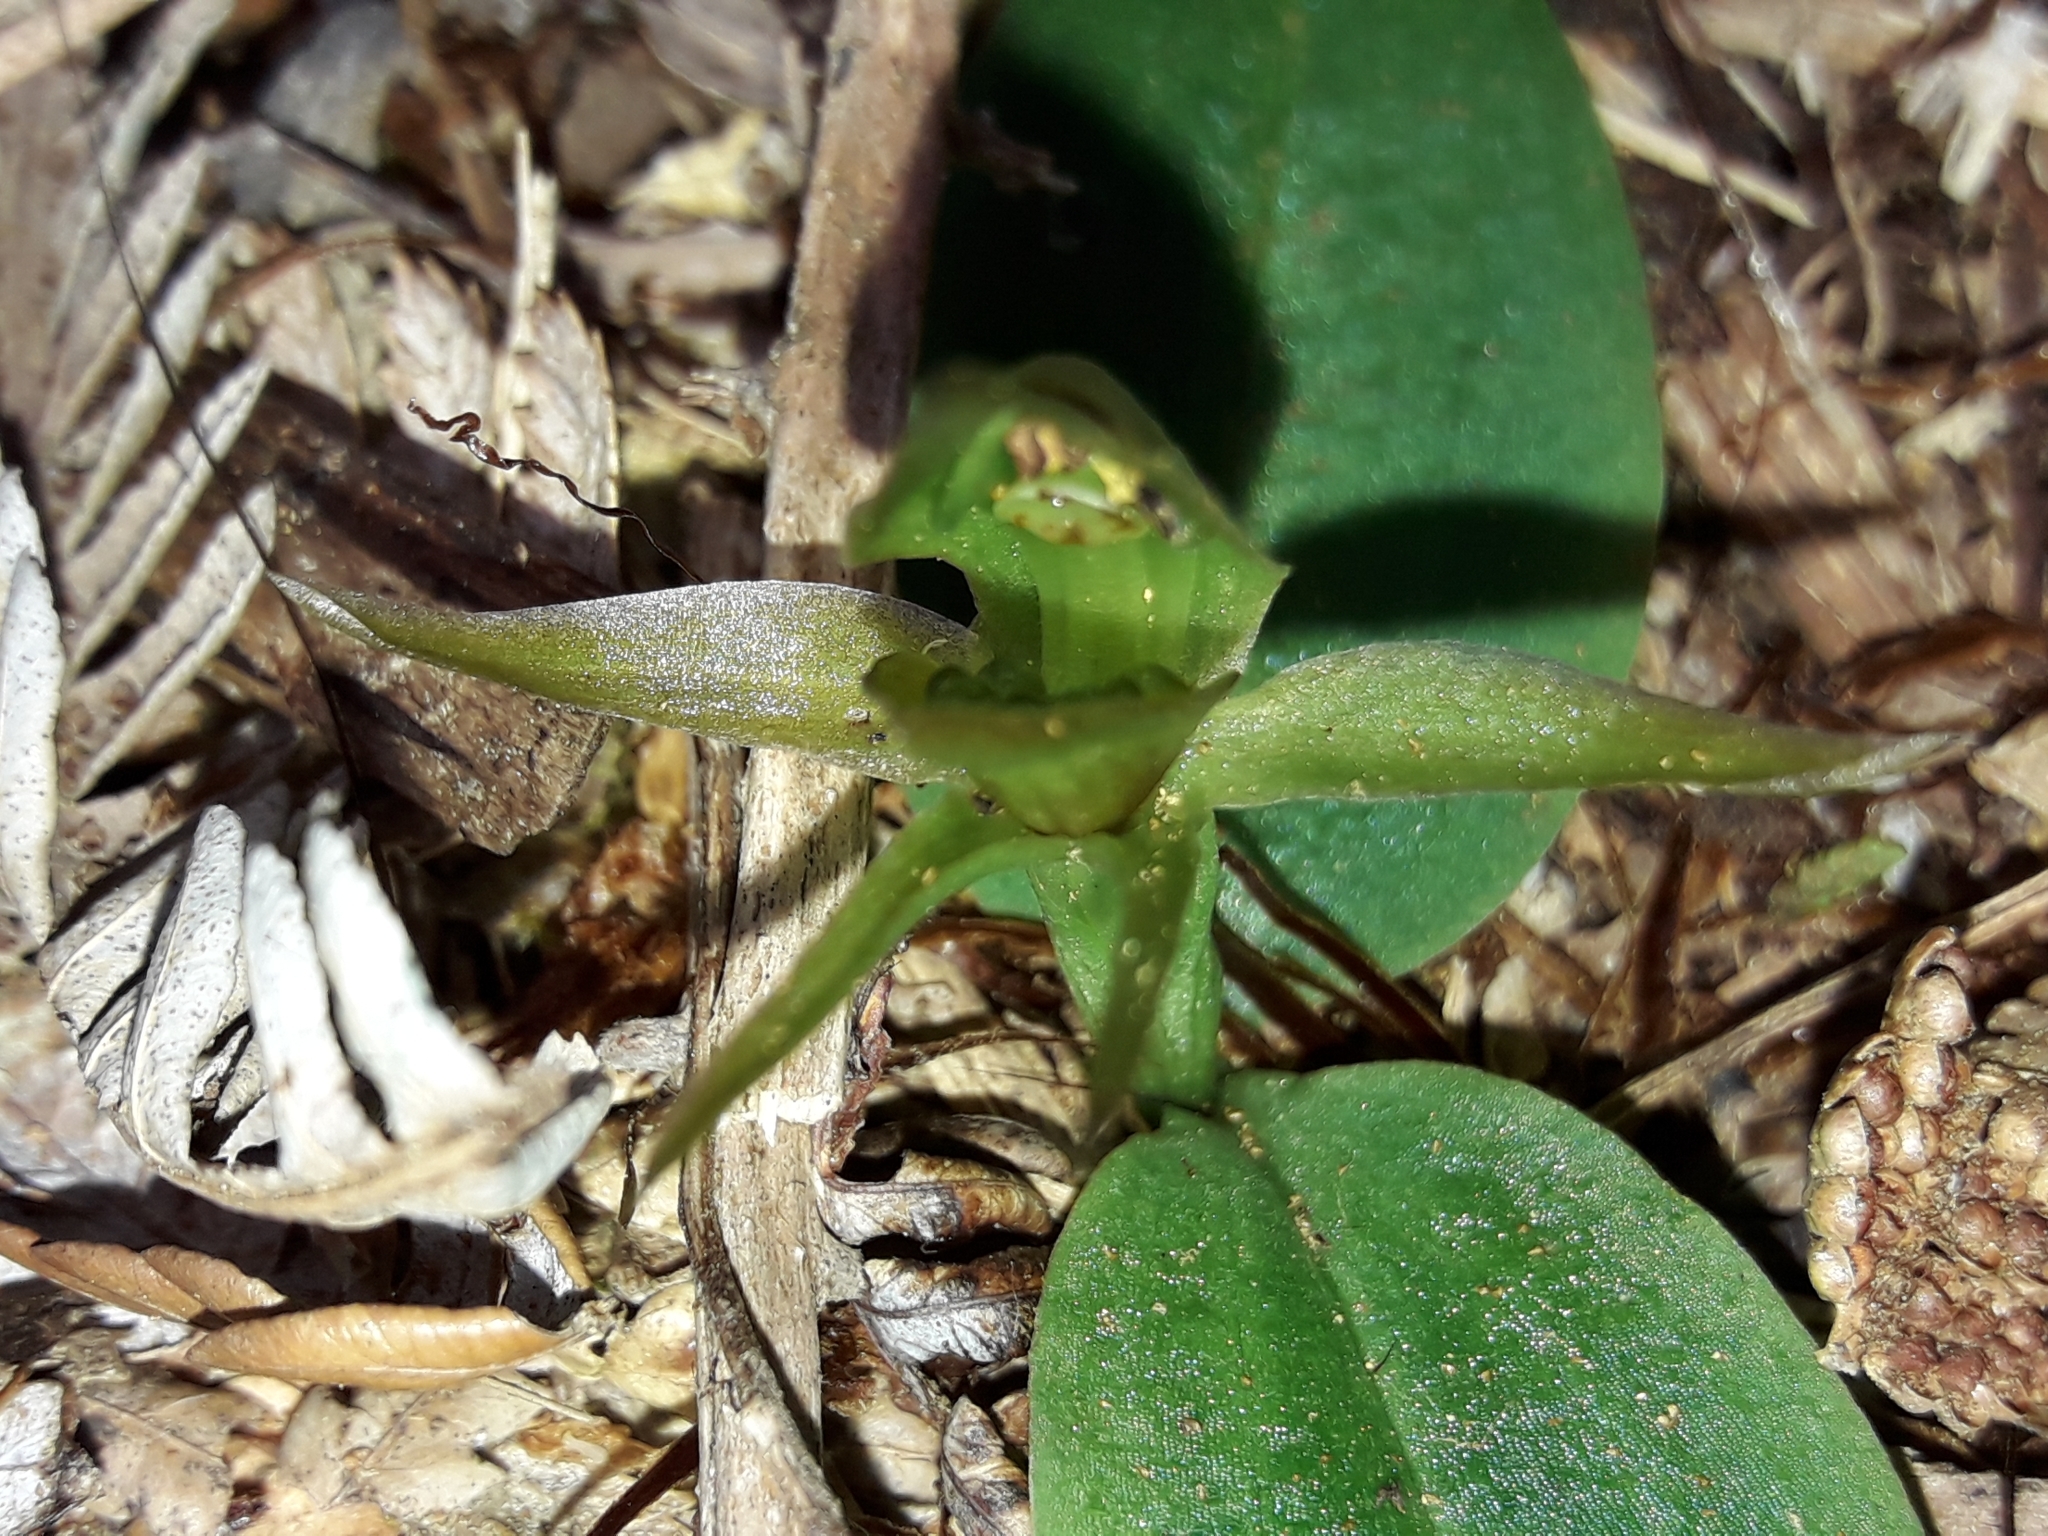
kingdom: Plantae
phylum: Tracheophyta
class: Liliopsida
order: Asparagales
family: Orchidaceae
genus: Chiloglottis
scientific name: Chiloglottis cornuta
